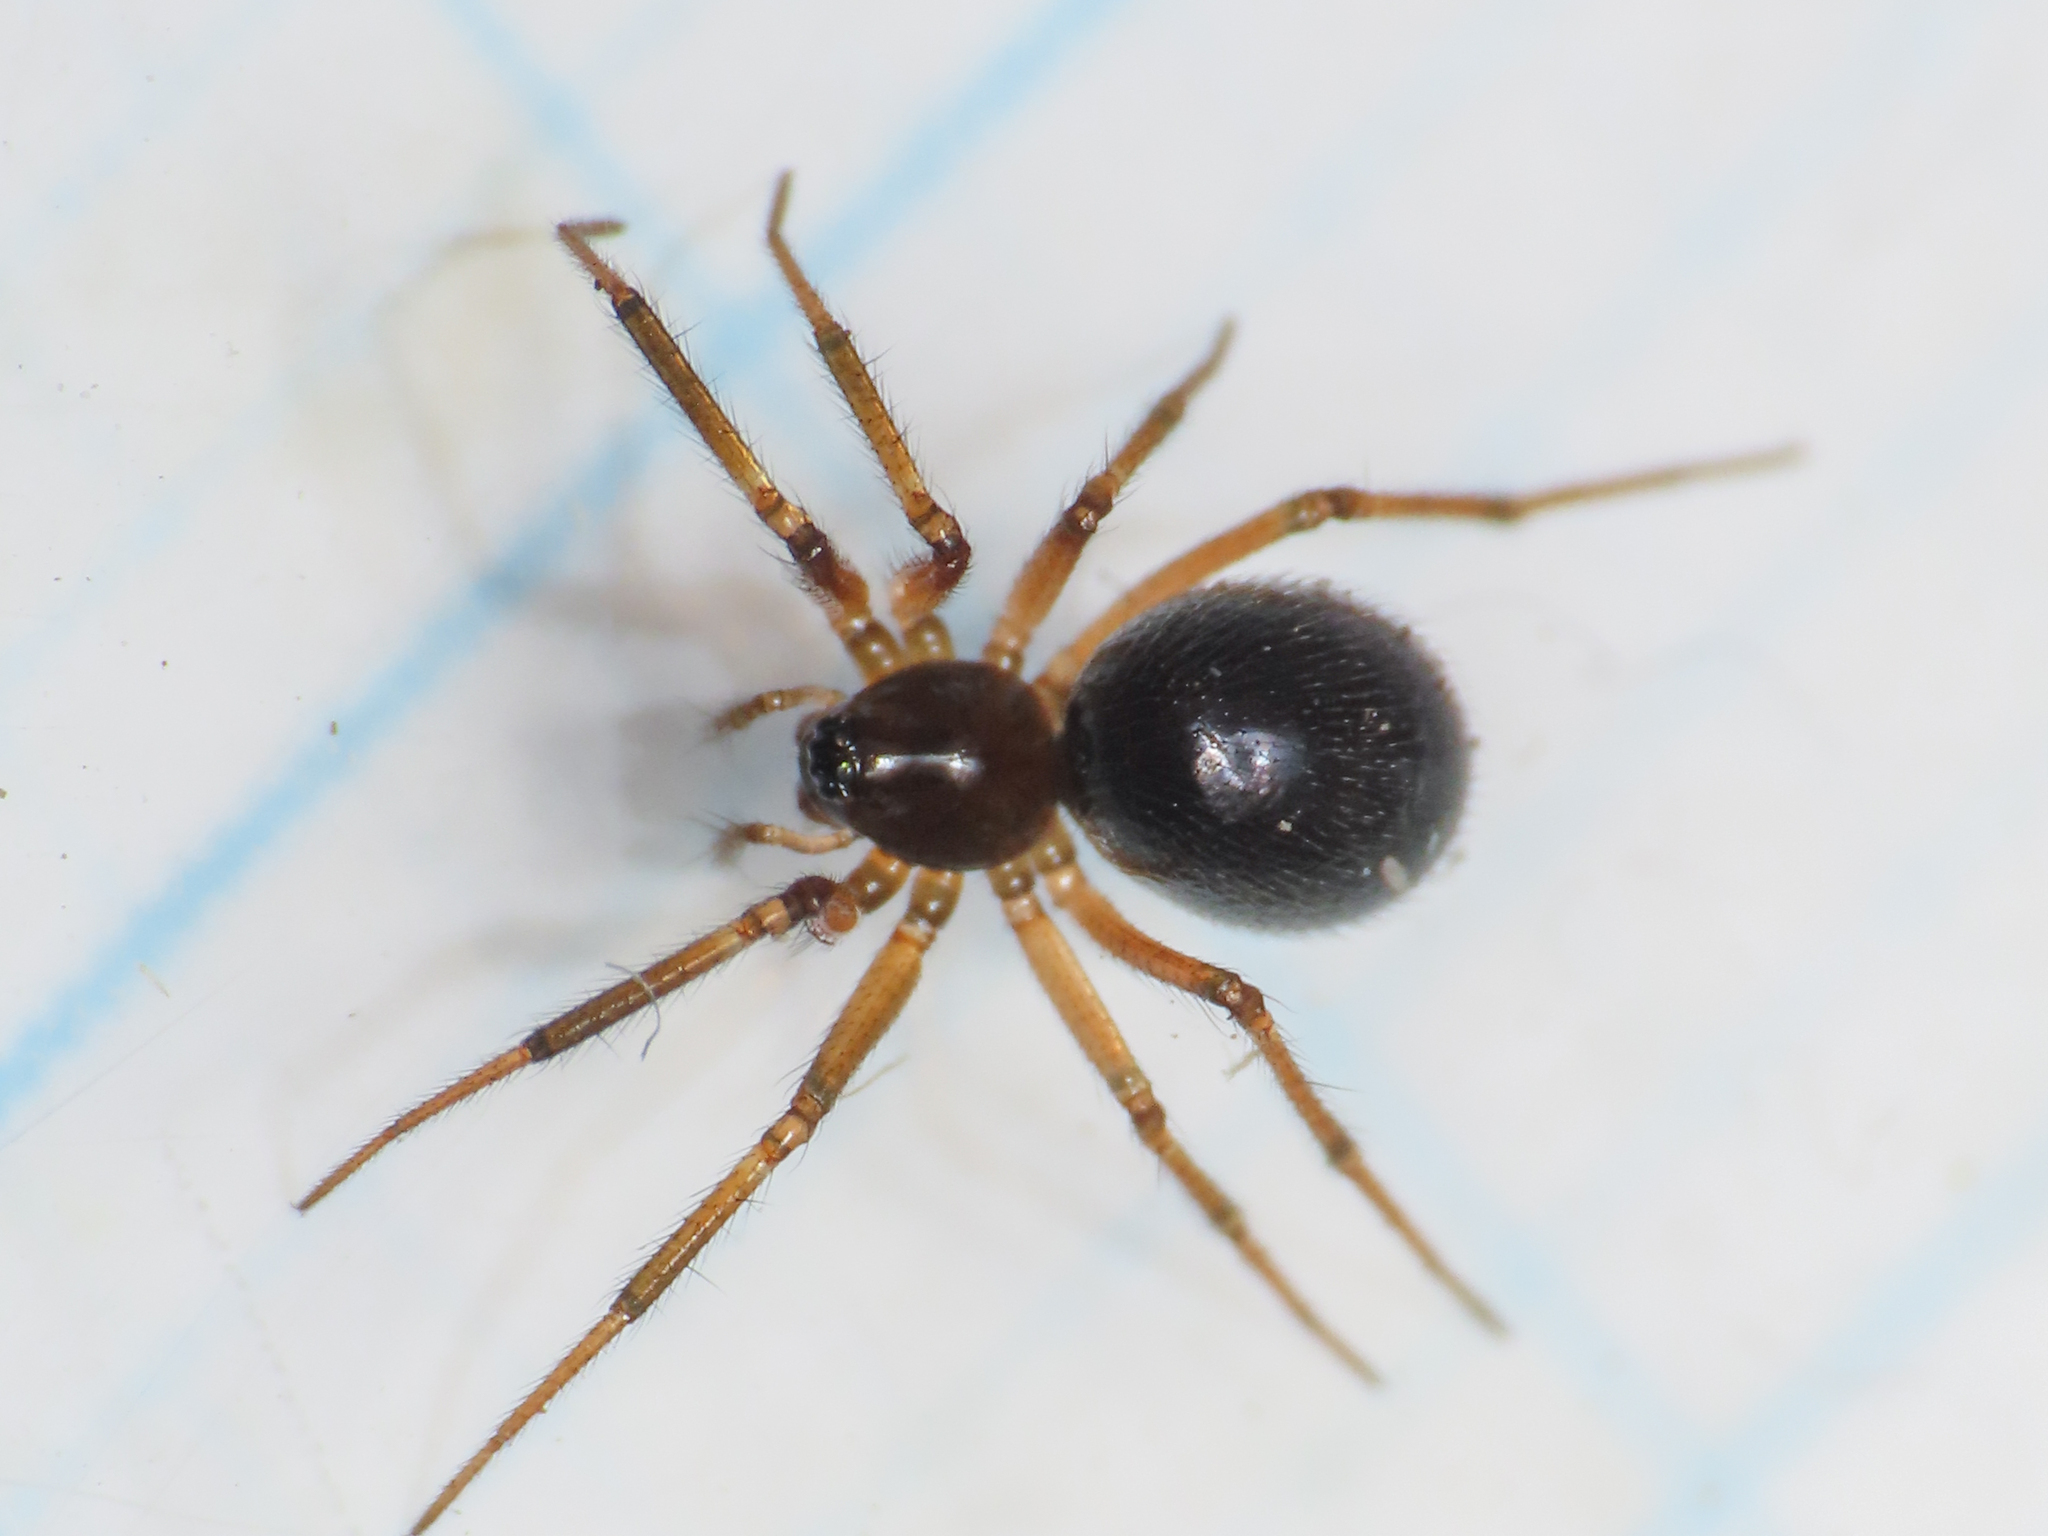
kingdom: Animalia
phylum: Arthropoda
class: Arachnida
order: Araneae
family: Linyphiidae
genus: Sintula
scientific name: Sintula retroversus
